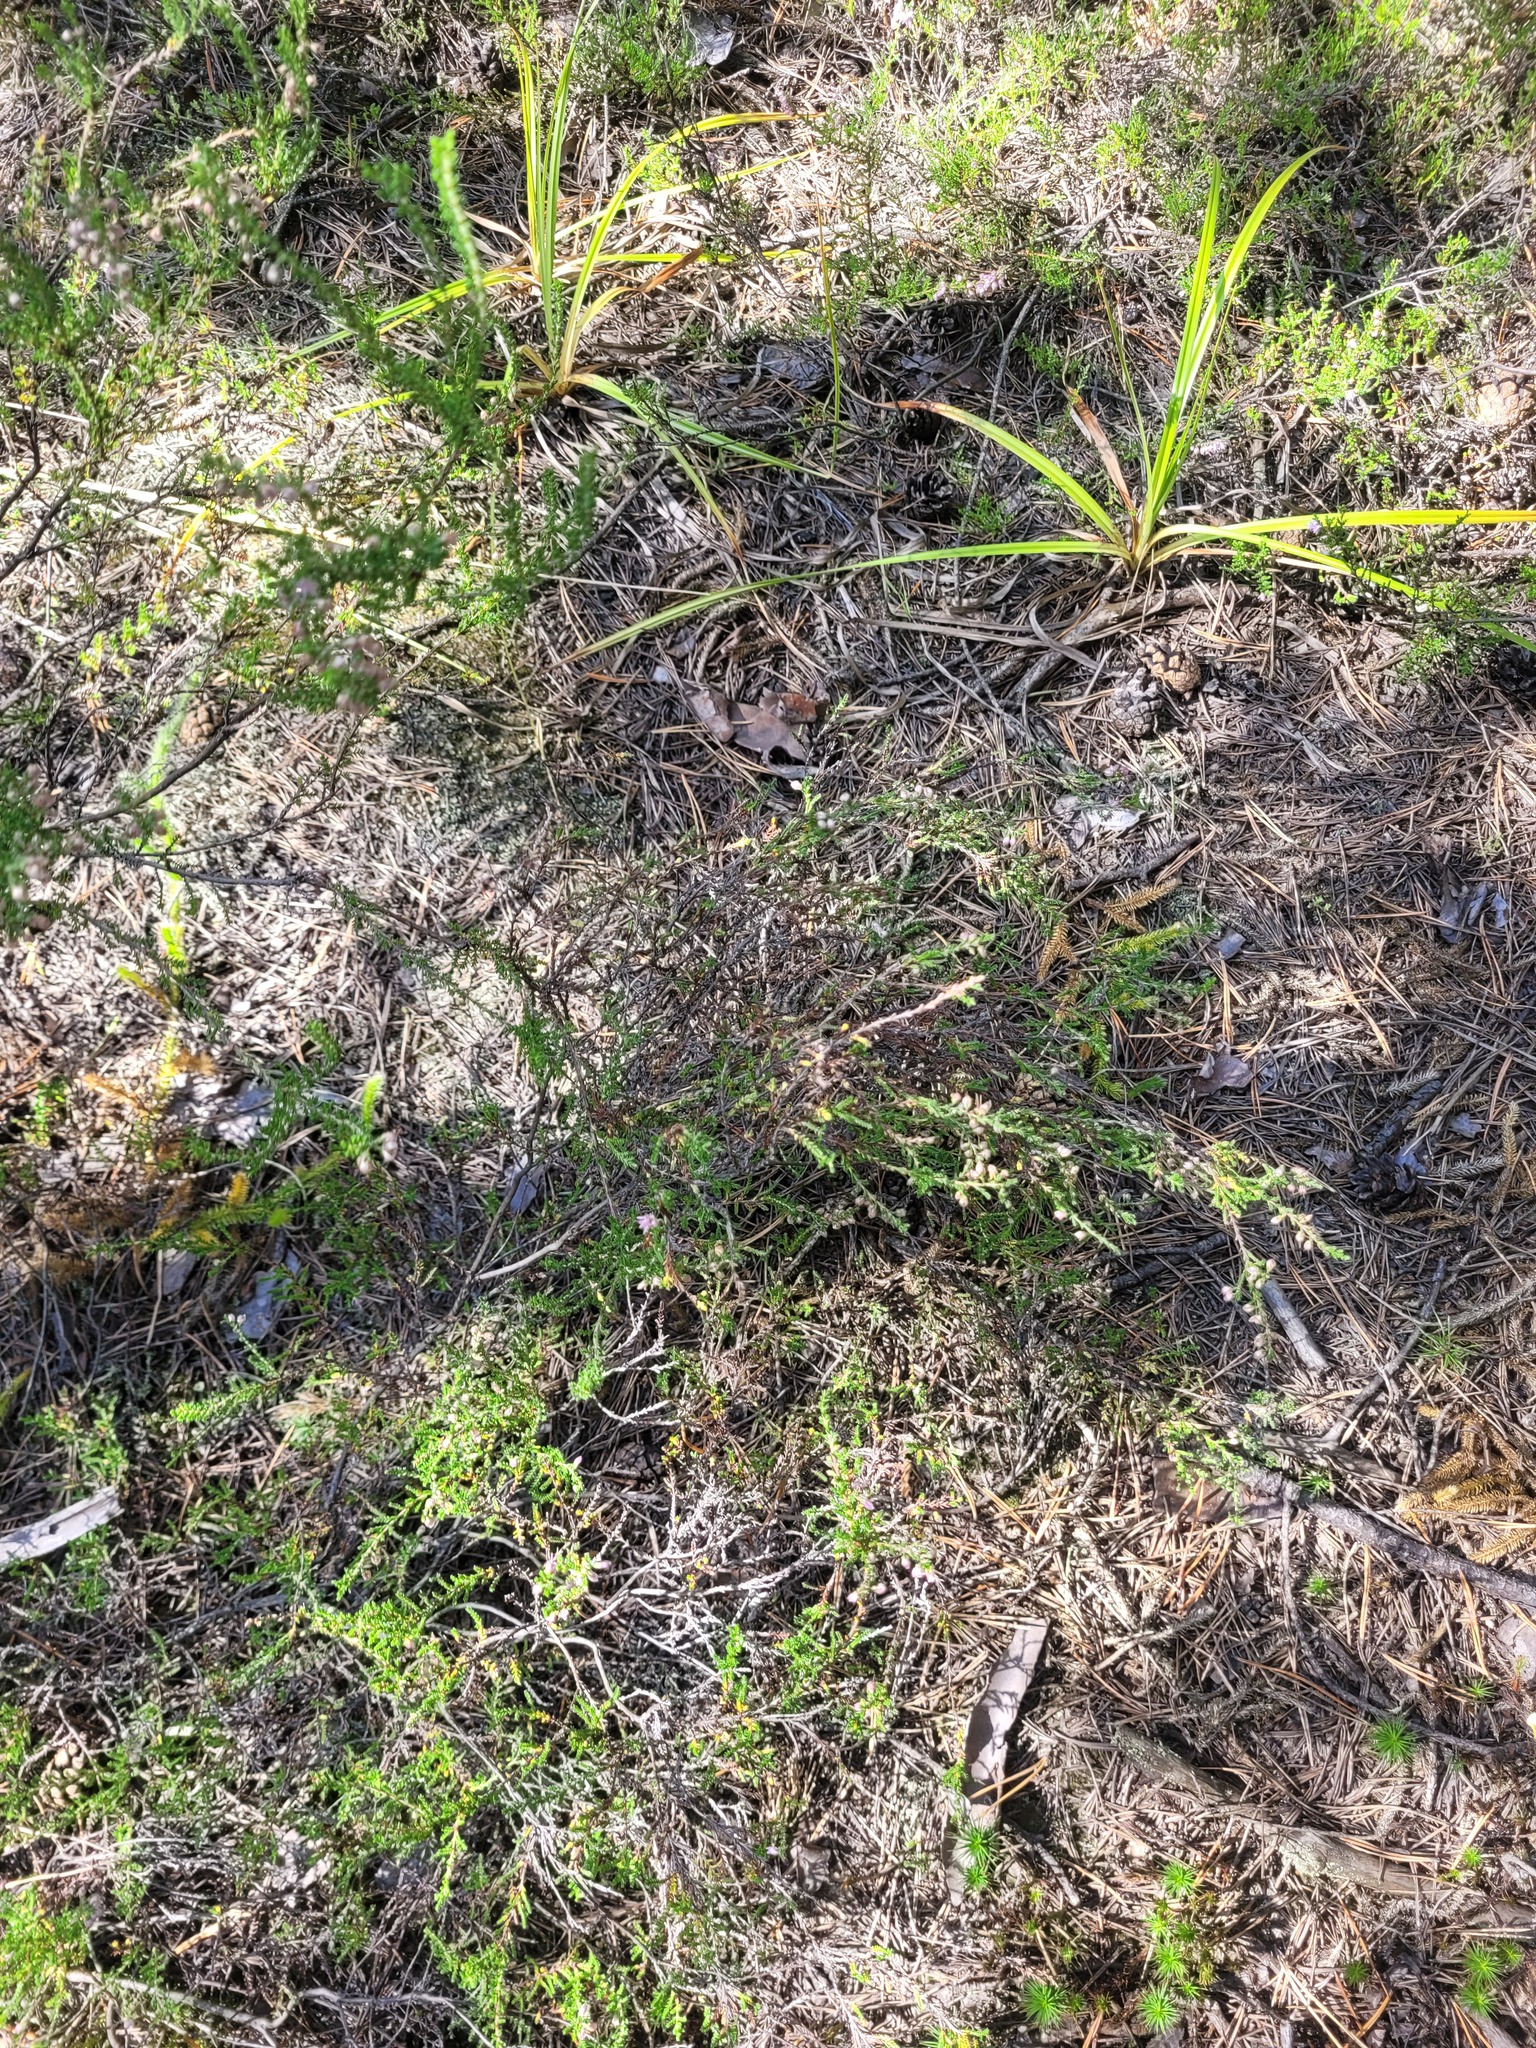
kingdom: Plantae
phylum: Tracheophyta
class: Magnoliopsida
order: Ericales
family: Ericaceae
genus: Calluna
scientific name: Calluna vulgaris
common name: Heather
